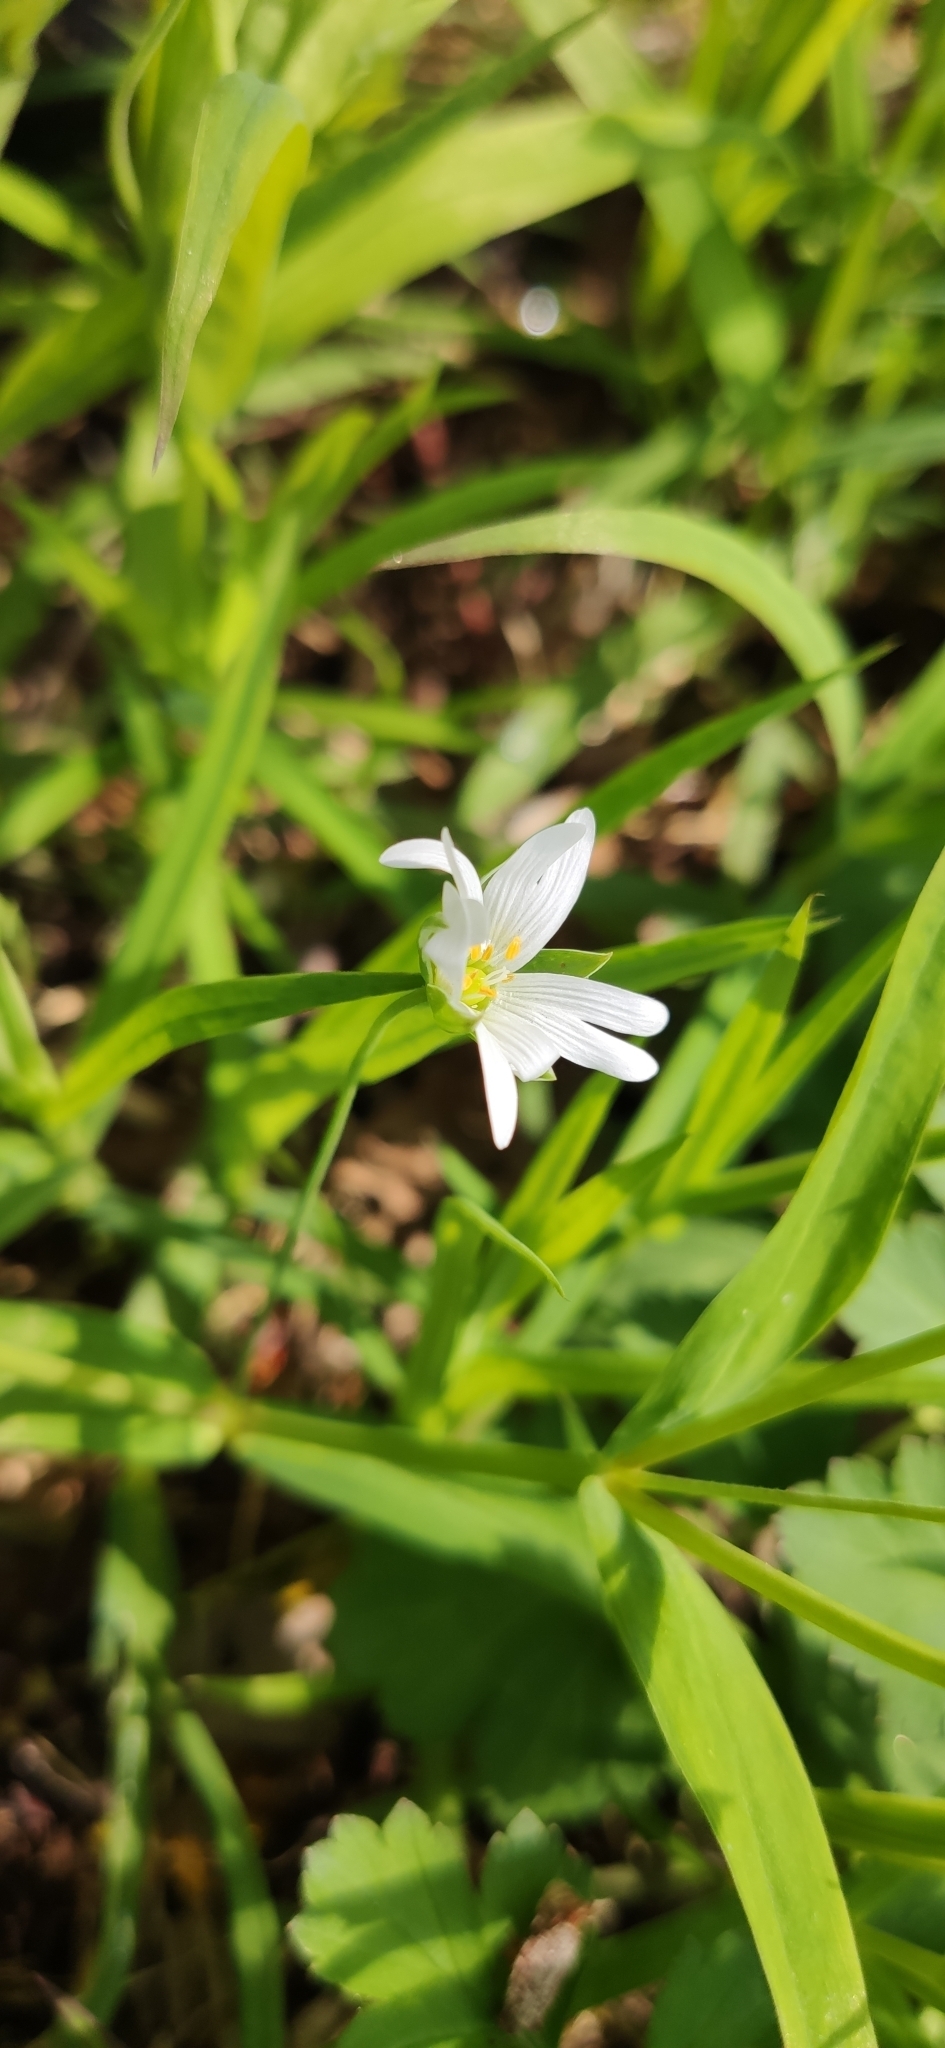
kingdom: Plantae
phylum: Tracheophyta
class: Magnoliopsida
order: Caryophyllales
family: Caryophyllaceae
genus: Rabelera
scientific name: Rabelera holostea
